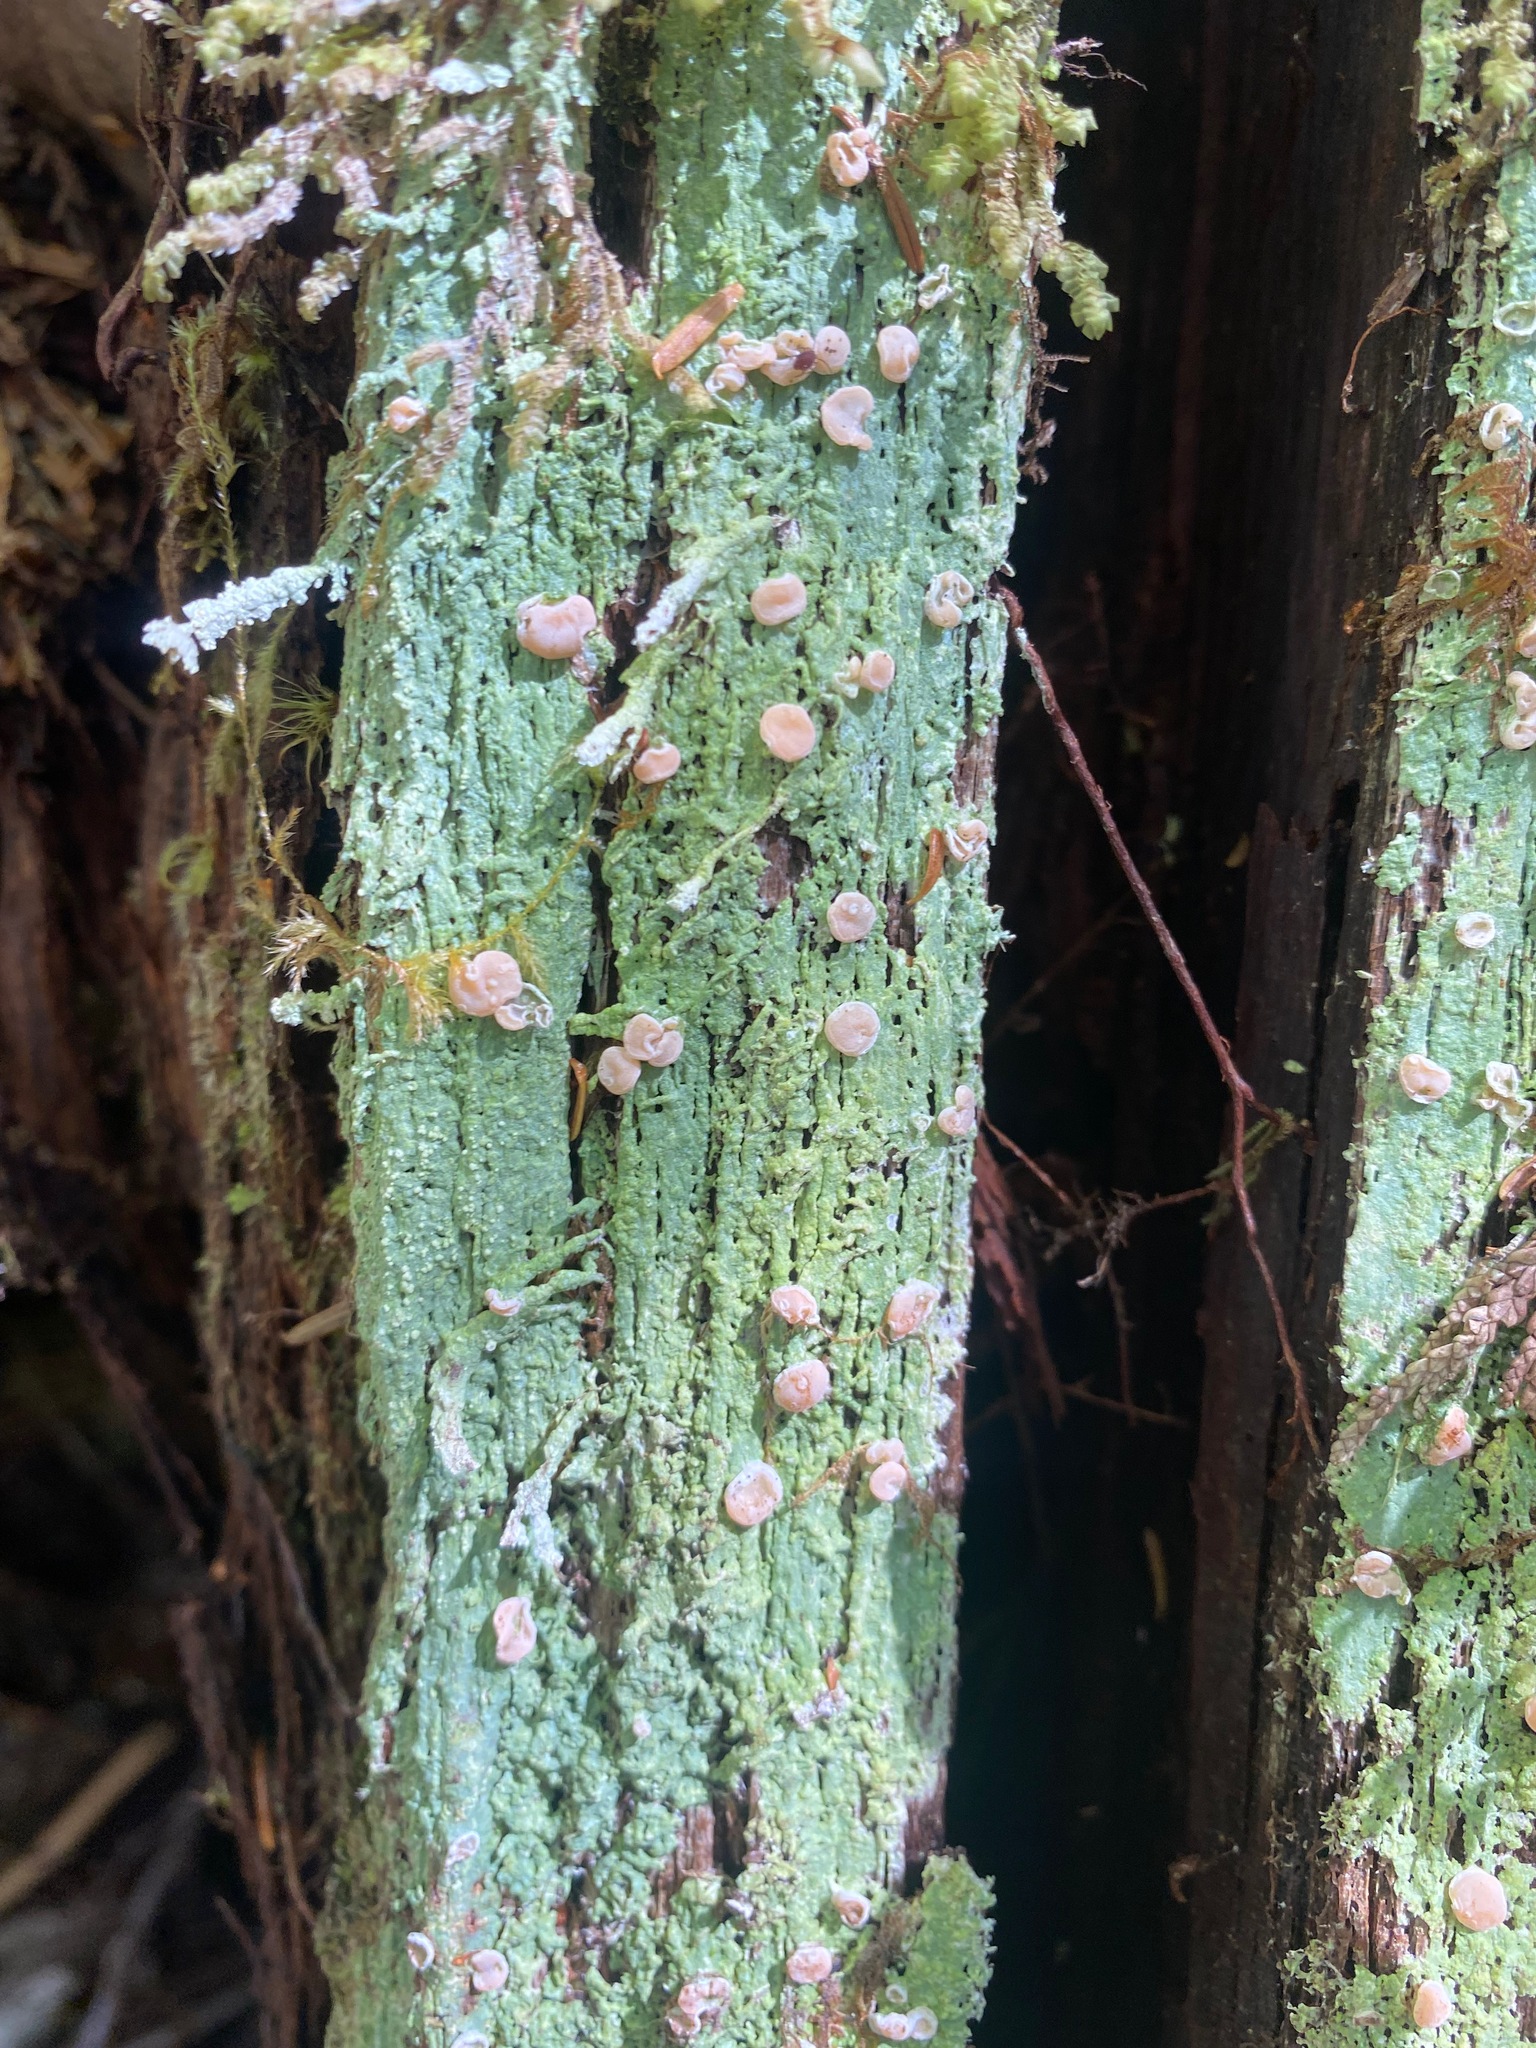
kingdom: Fungi
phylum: Ascomycota
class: Lecanoromycetes
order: Pertusariales
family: Icmadophilaceae
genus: Icmadophila
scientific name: Icmadophila ericetorum
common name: Candy lichen
